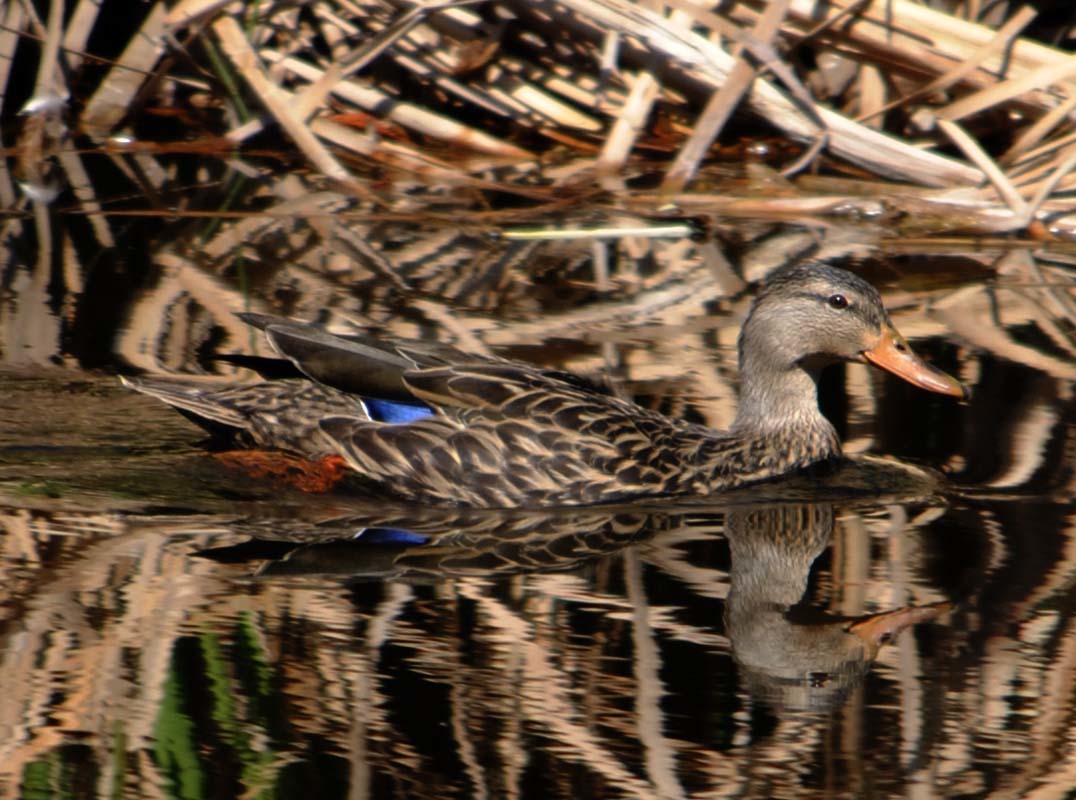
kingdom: Animalia
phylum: Chordata
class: Aves
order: Anseriformes
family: Anatidae
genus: Anas
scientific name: Anas diazi
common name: Mexican duck
